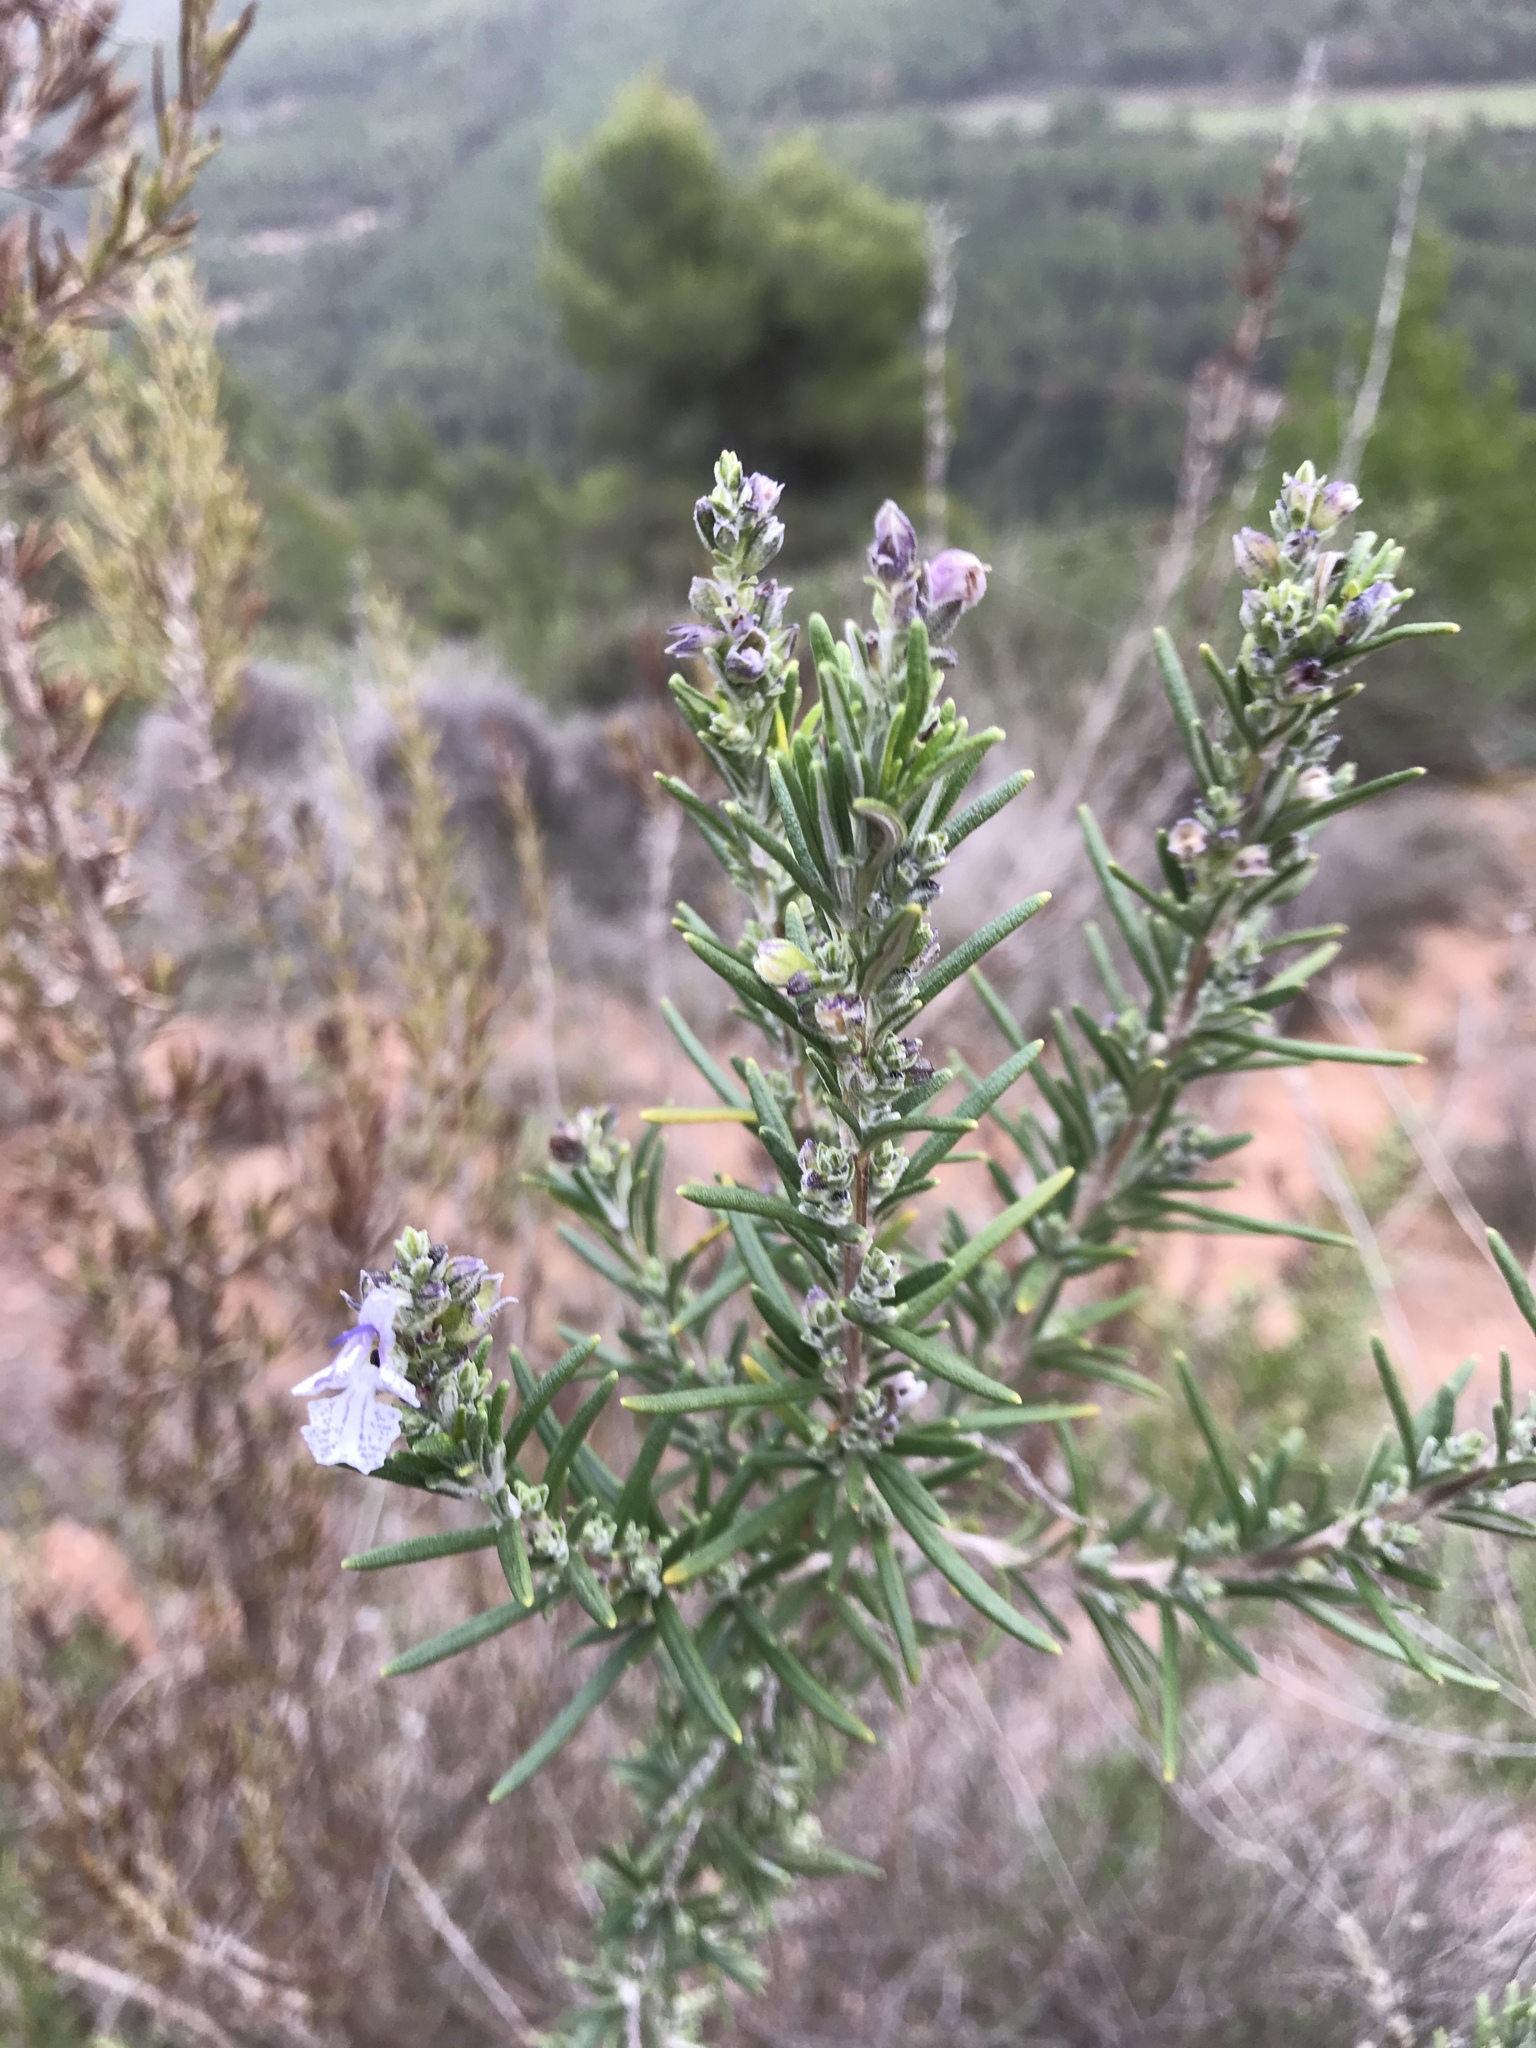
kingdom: Plantae
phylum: Tracheophyta
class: Magnoliopsida
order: Lamiales
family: Lamiaceae
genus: Salvia
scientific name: Salvia rosmarinus
